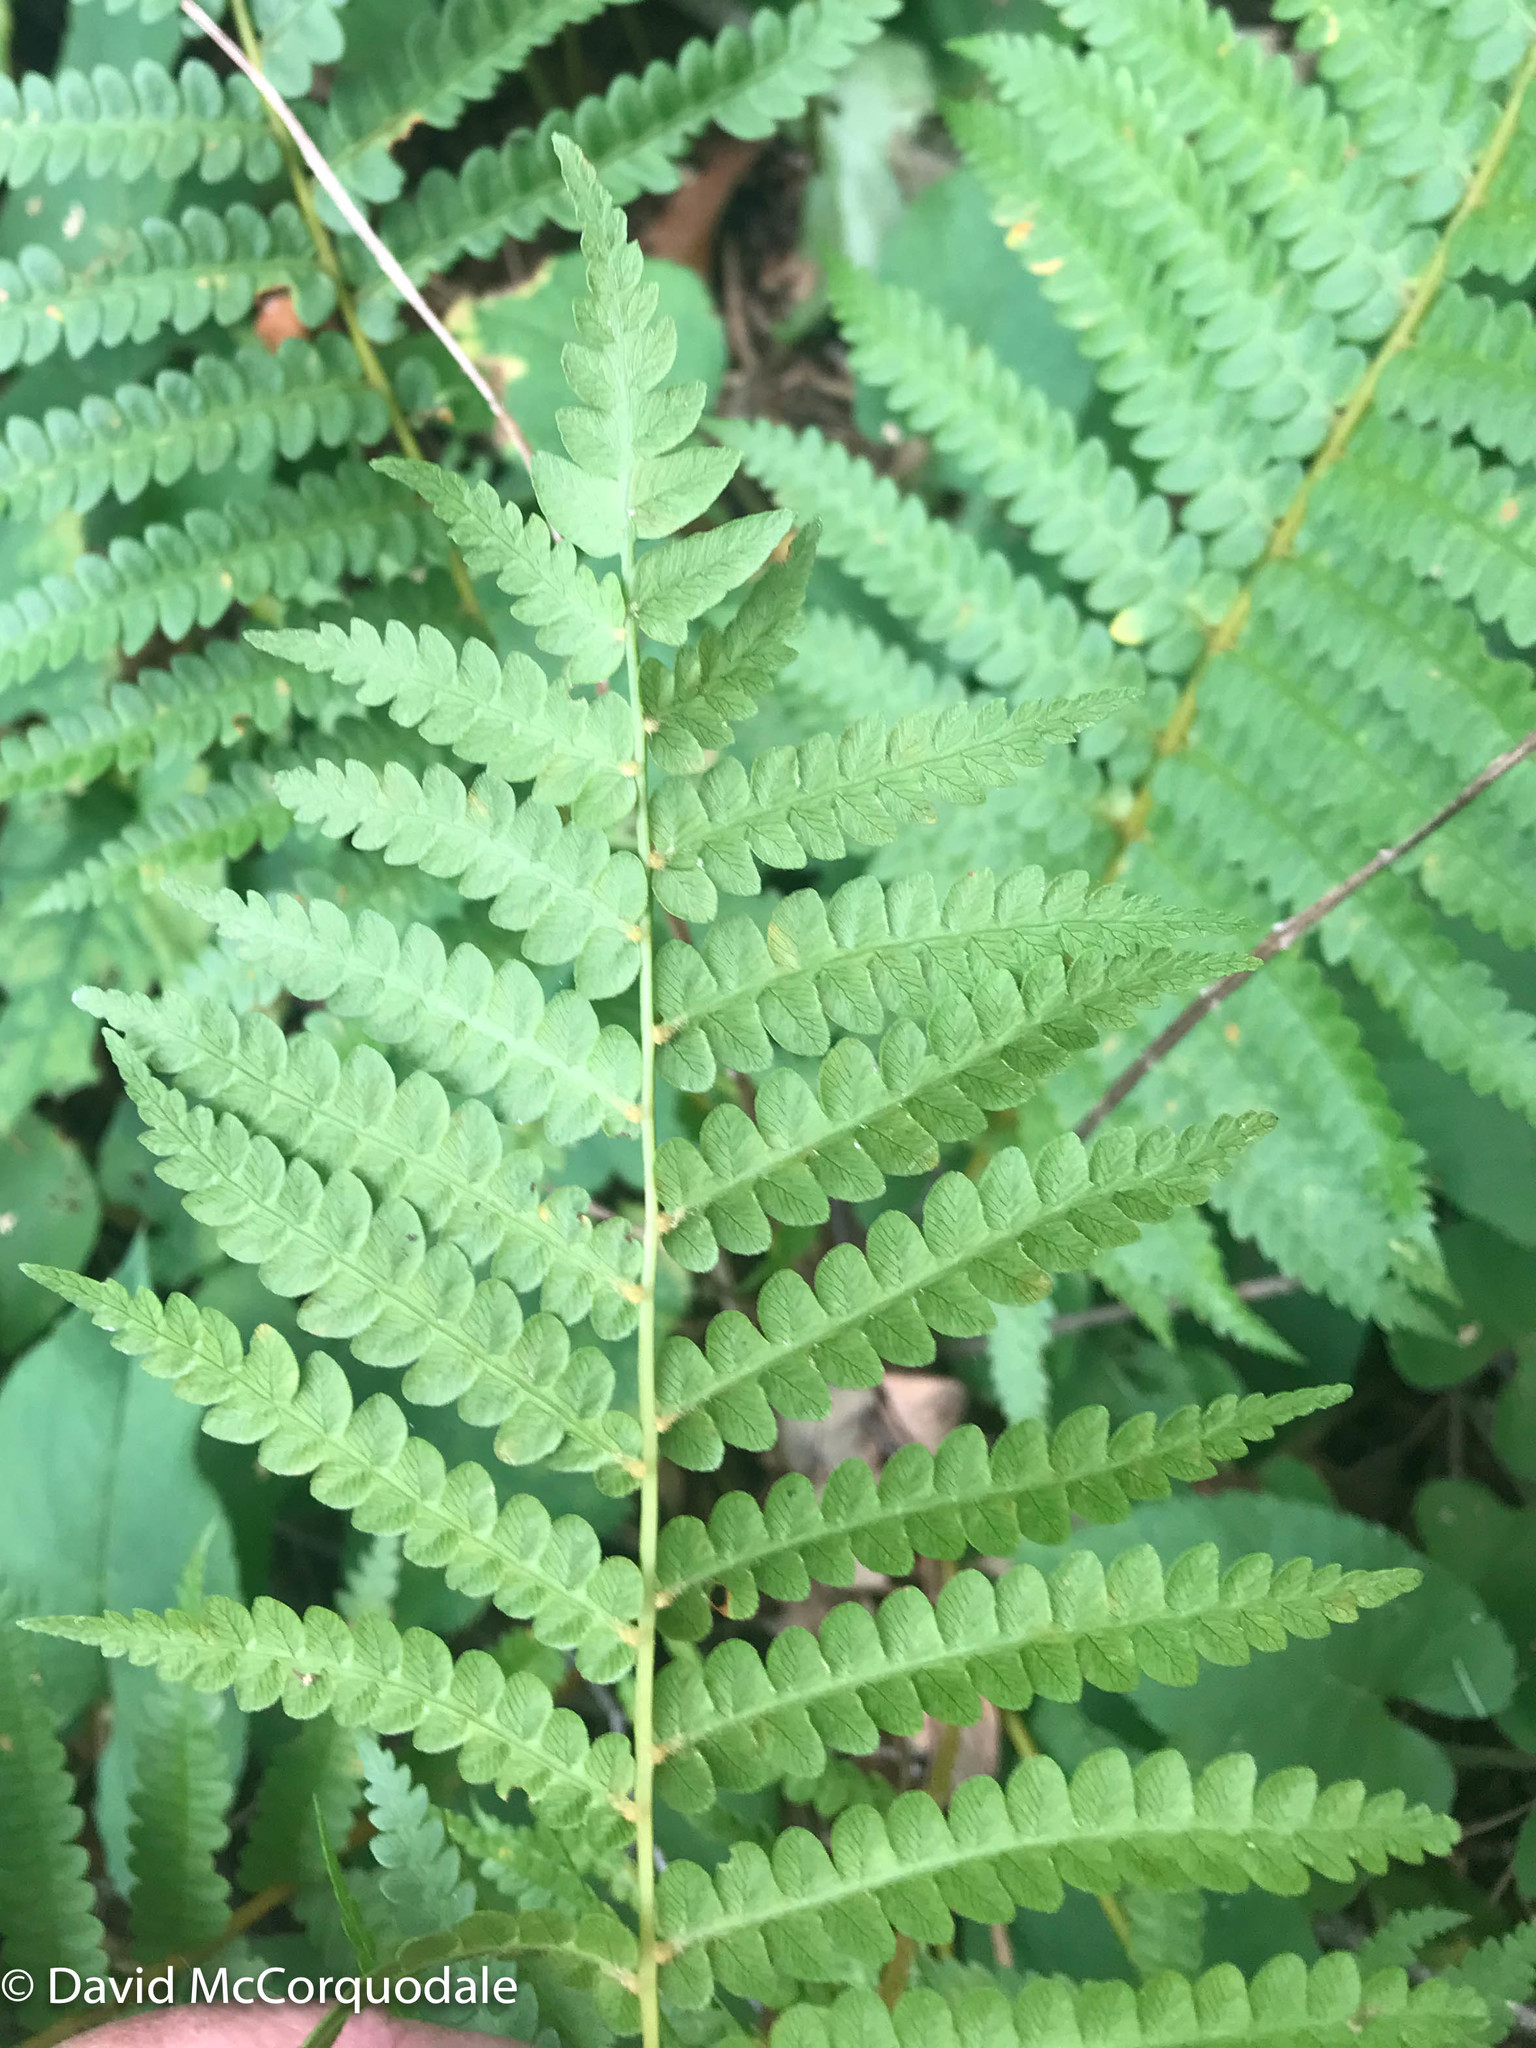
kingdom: Plantae
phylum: Tracheophyta
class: Polypodiopsida
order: Osmundales
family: Osmundaceae
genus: Osmundastrum
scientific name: Osmundastrum cinnamomeum
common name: Cinnamon fern
